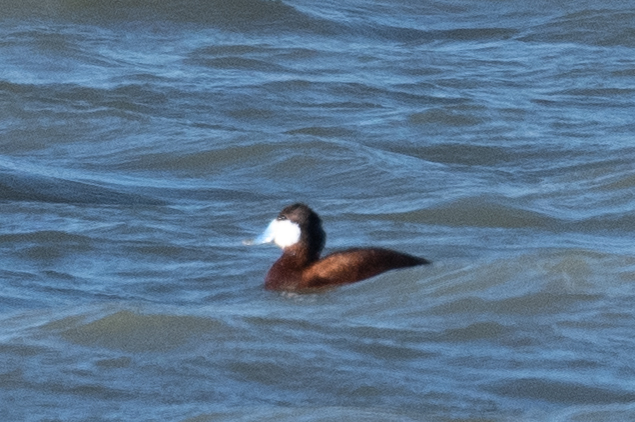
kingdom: Animalia
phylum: Chordata
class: Aves
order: Anseriformes
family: Anatidae
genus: Oxyura
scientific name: Oxyura jamaicensis
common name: Ruddy duck
